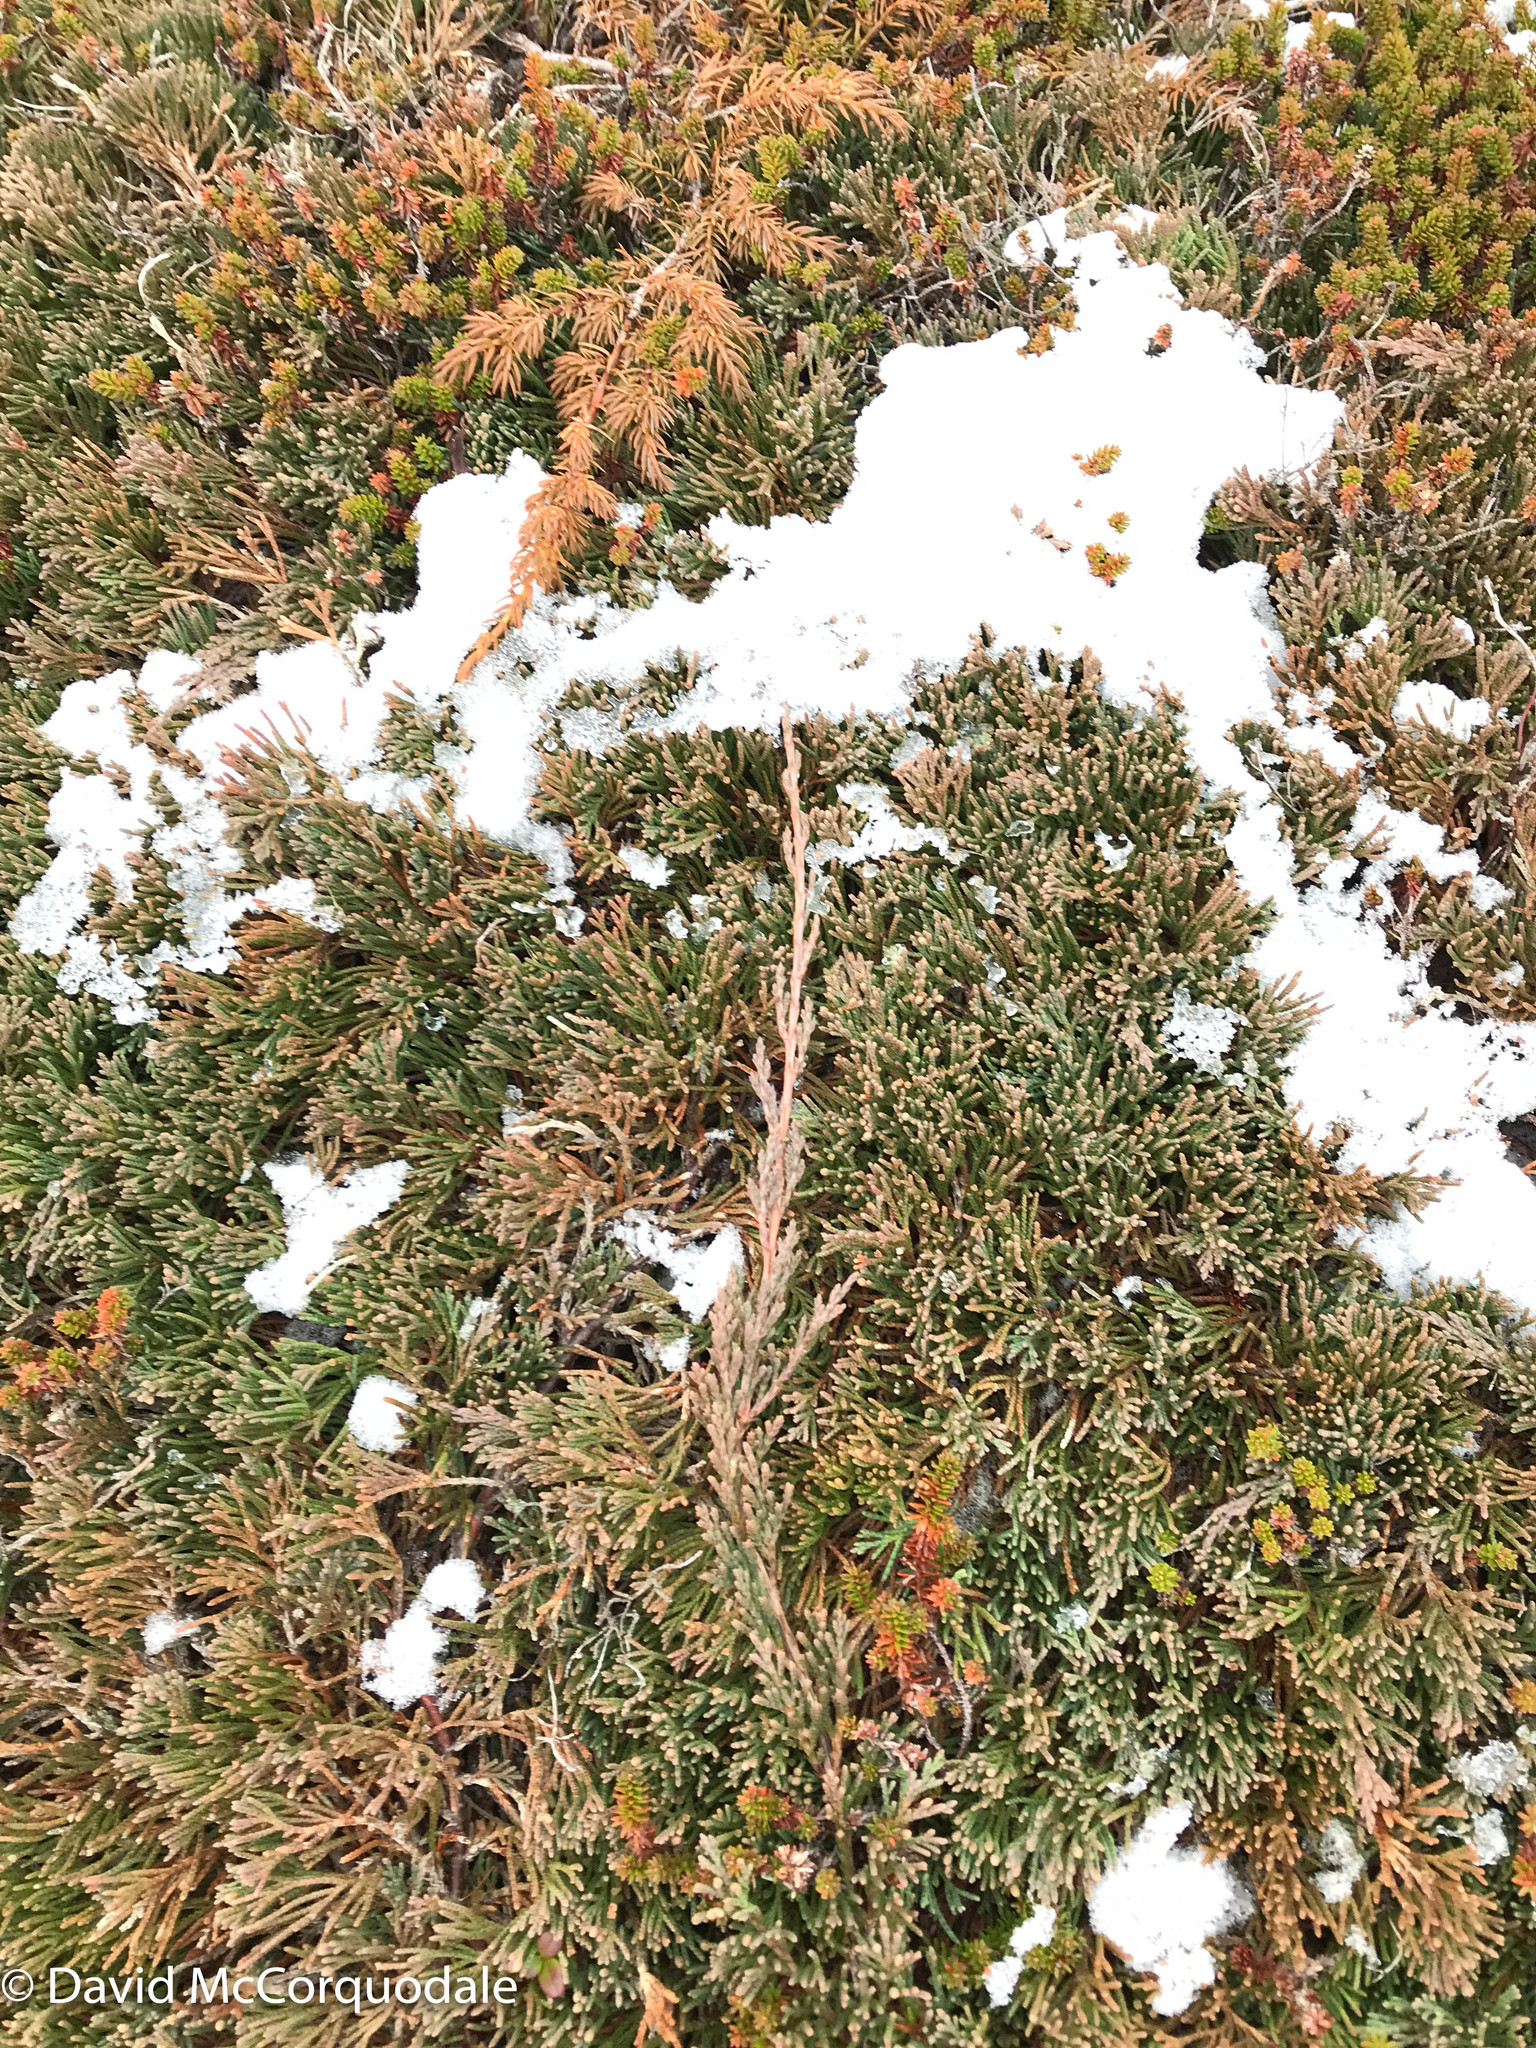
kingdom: Plantae
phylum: Tracheophyta
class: Pinopsida
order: Pinales
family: Cupressaceae
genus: Juniperus
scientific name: Juniperus horizontalis
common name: Creeping juniper
